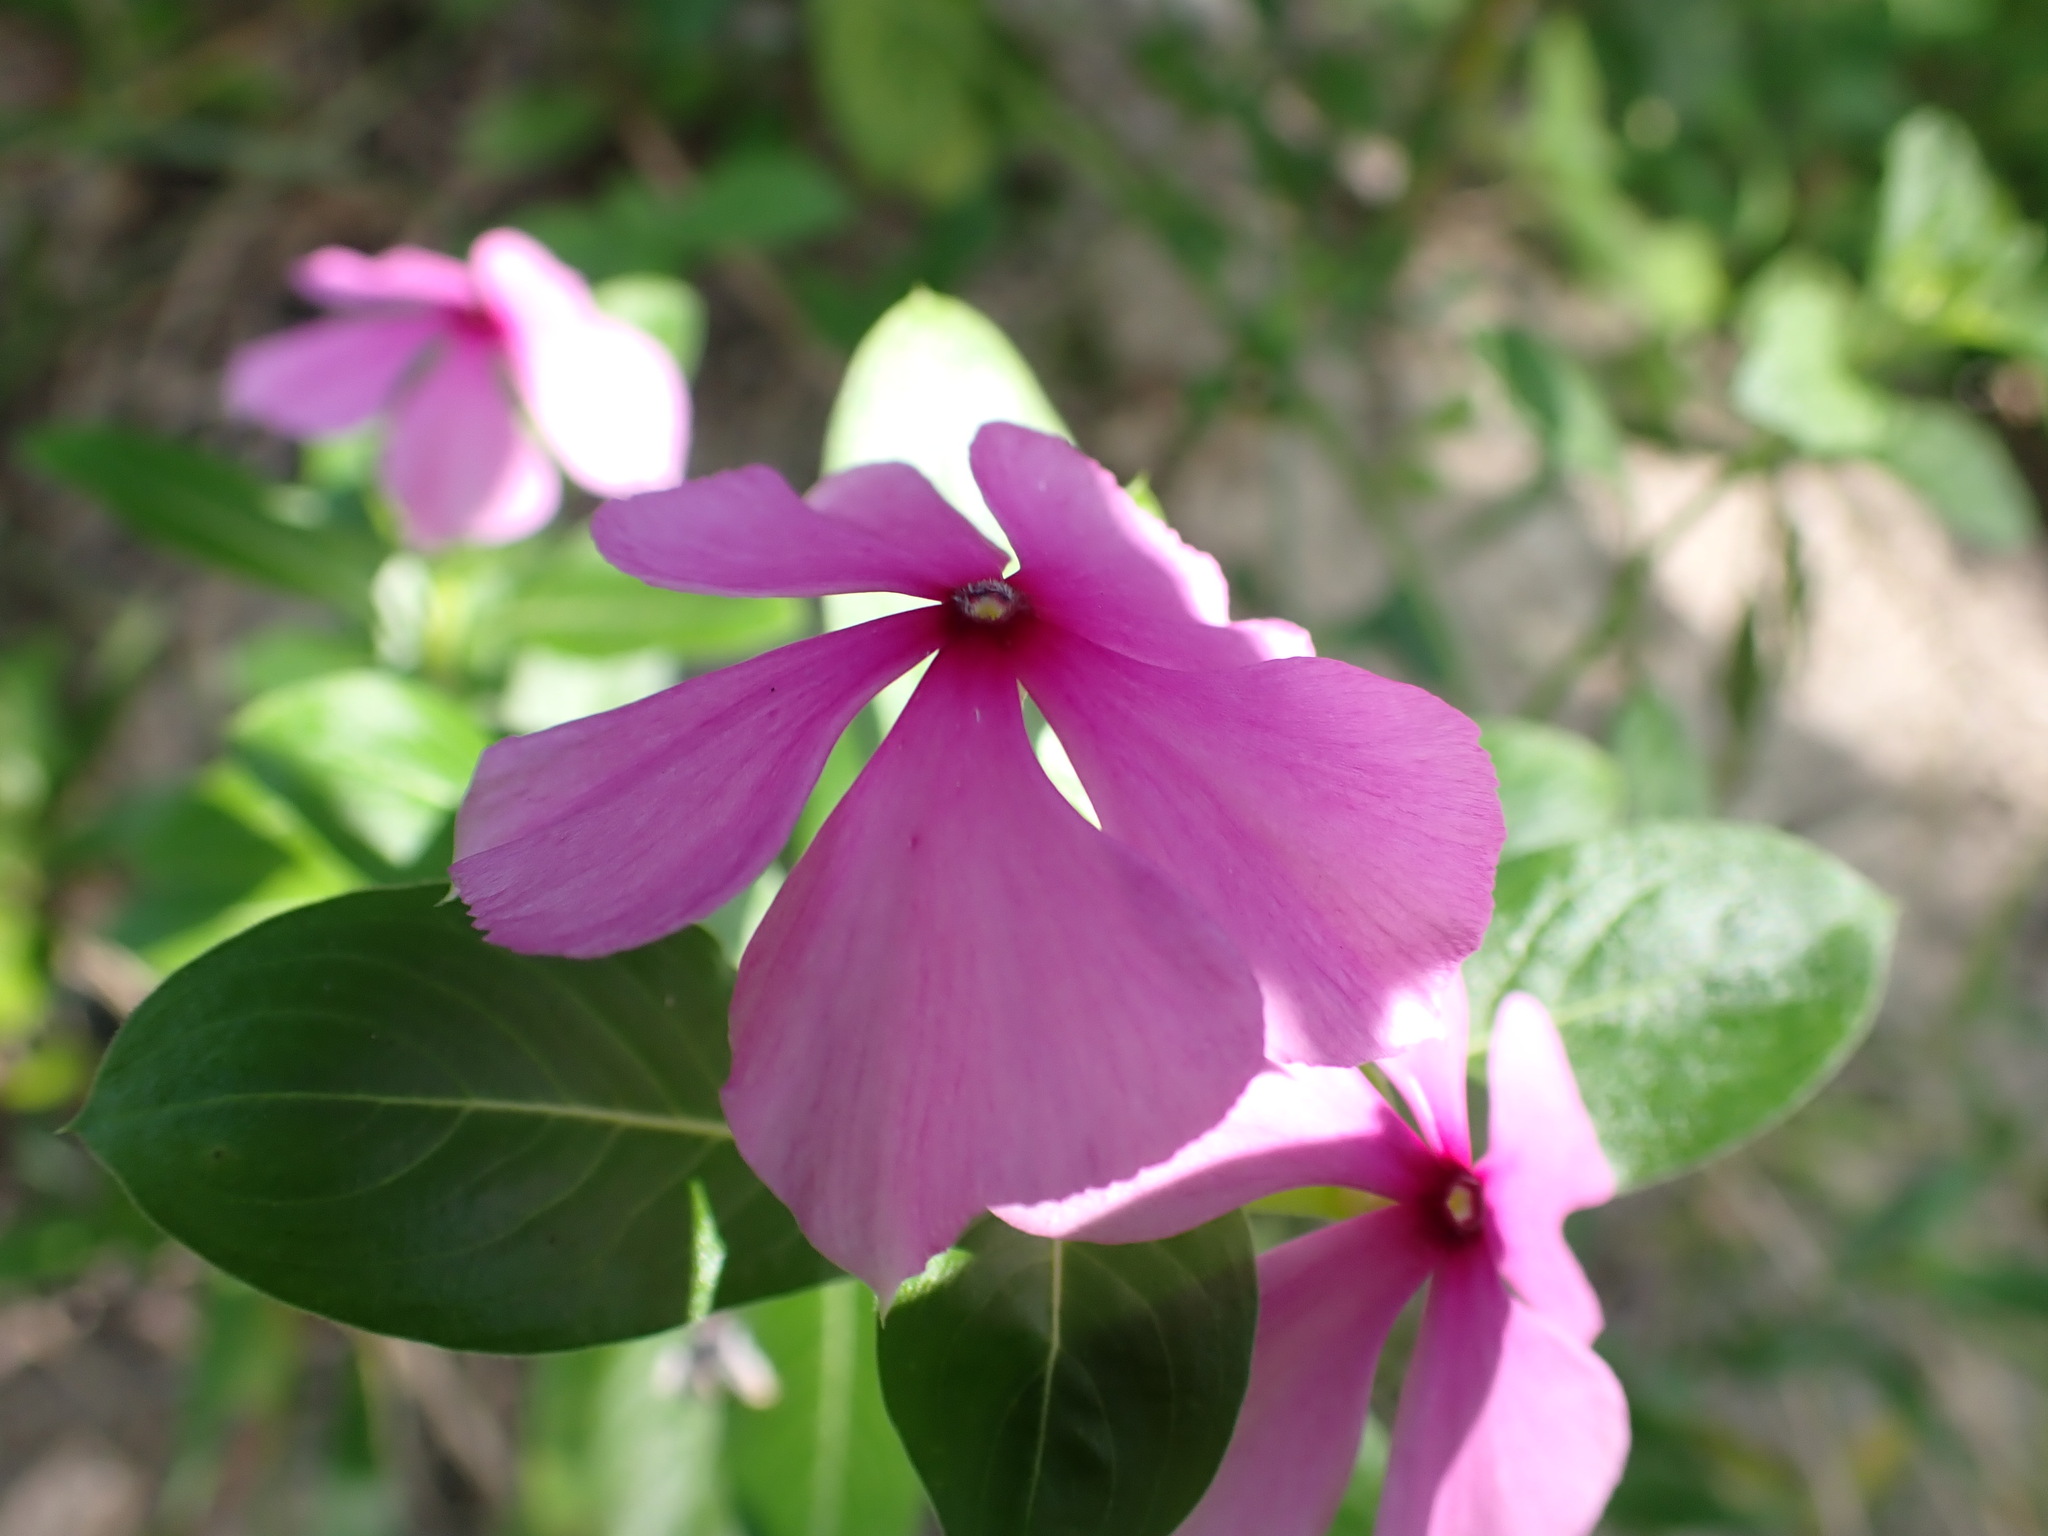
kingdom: Plantae
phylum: Tracheophyta
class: Magnoliopsida
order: Gentianales
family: Apocynaceae
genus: Catharanthus
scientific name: Catharanthus roseus
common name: Madagascar periwinkle
